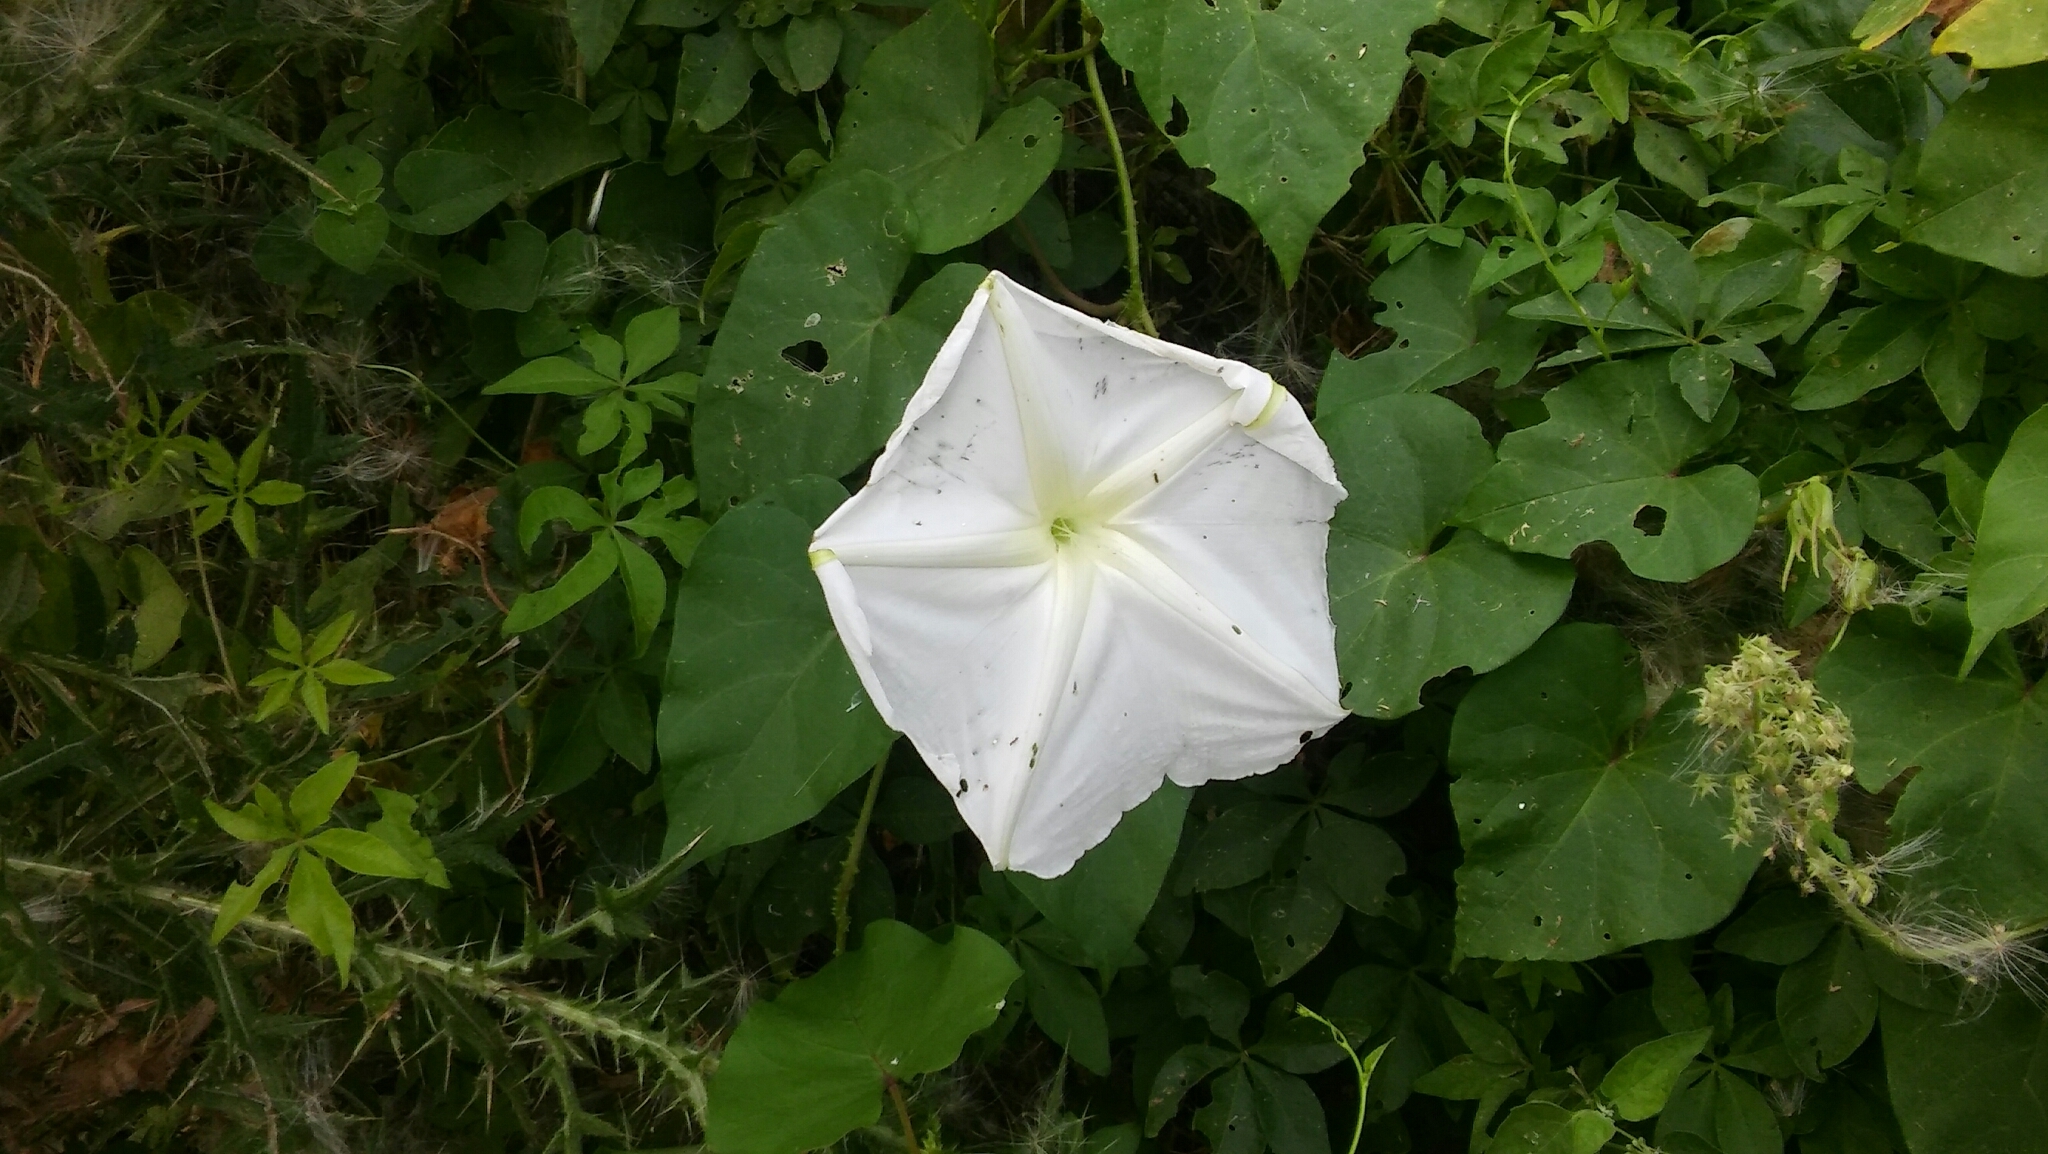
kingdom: Plantae
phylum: Tracheophyta
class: Magnoliopsida
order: Solanales
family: Convolvulaceae
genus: Ipomoea
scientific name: Ipomoea alba
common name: Moonflower
